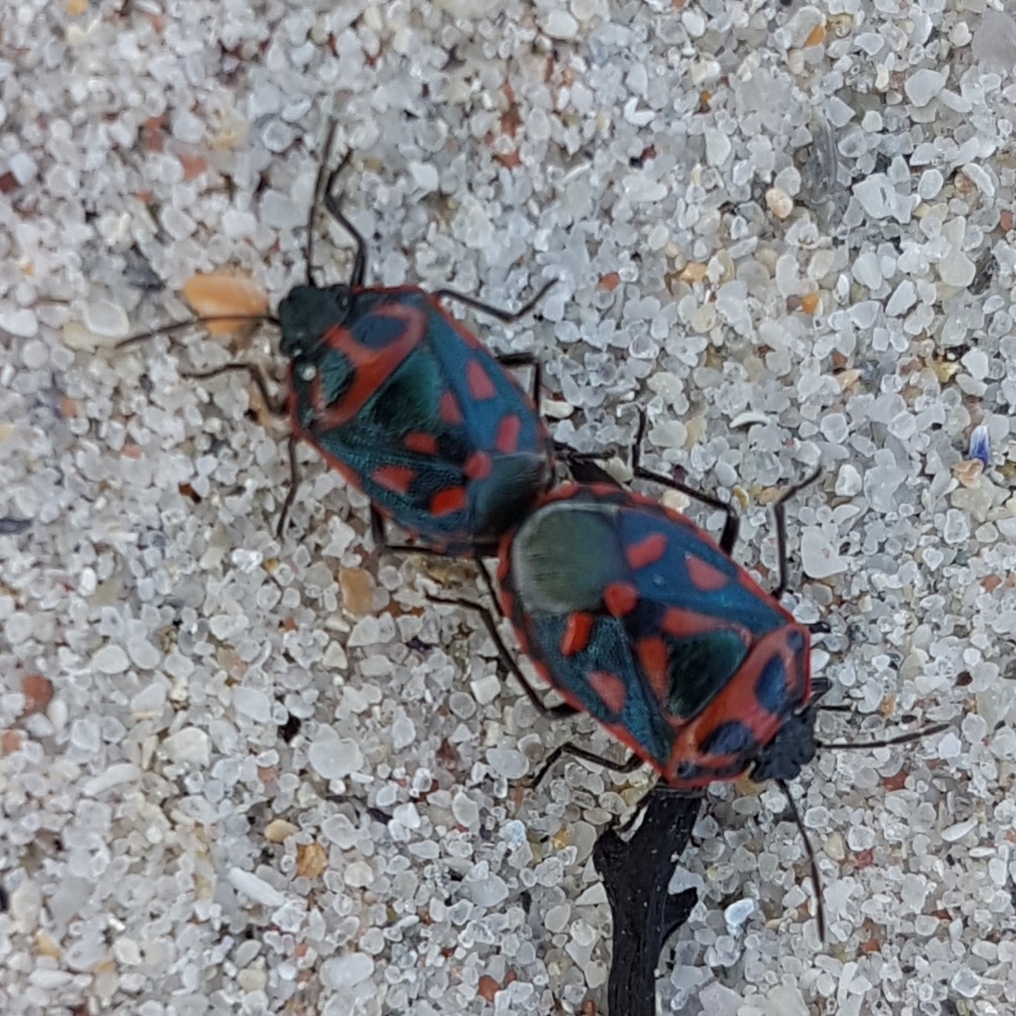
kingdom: Animalia
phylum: Arthropoda
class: Insecta
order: Hemiptera
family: Pentatomidae
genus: Eurydema
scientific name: Eurydema herbacea
